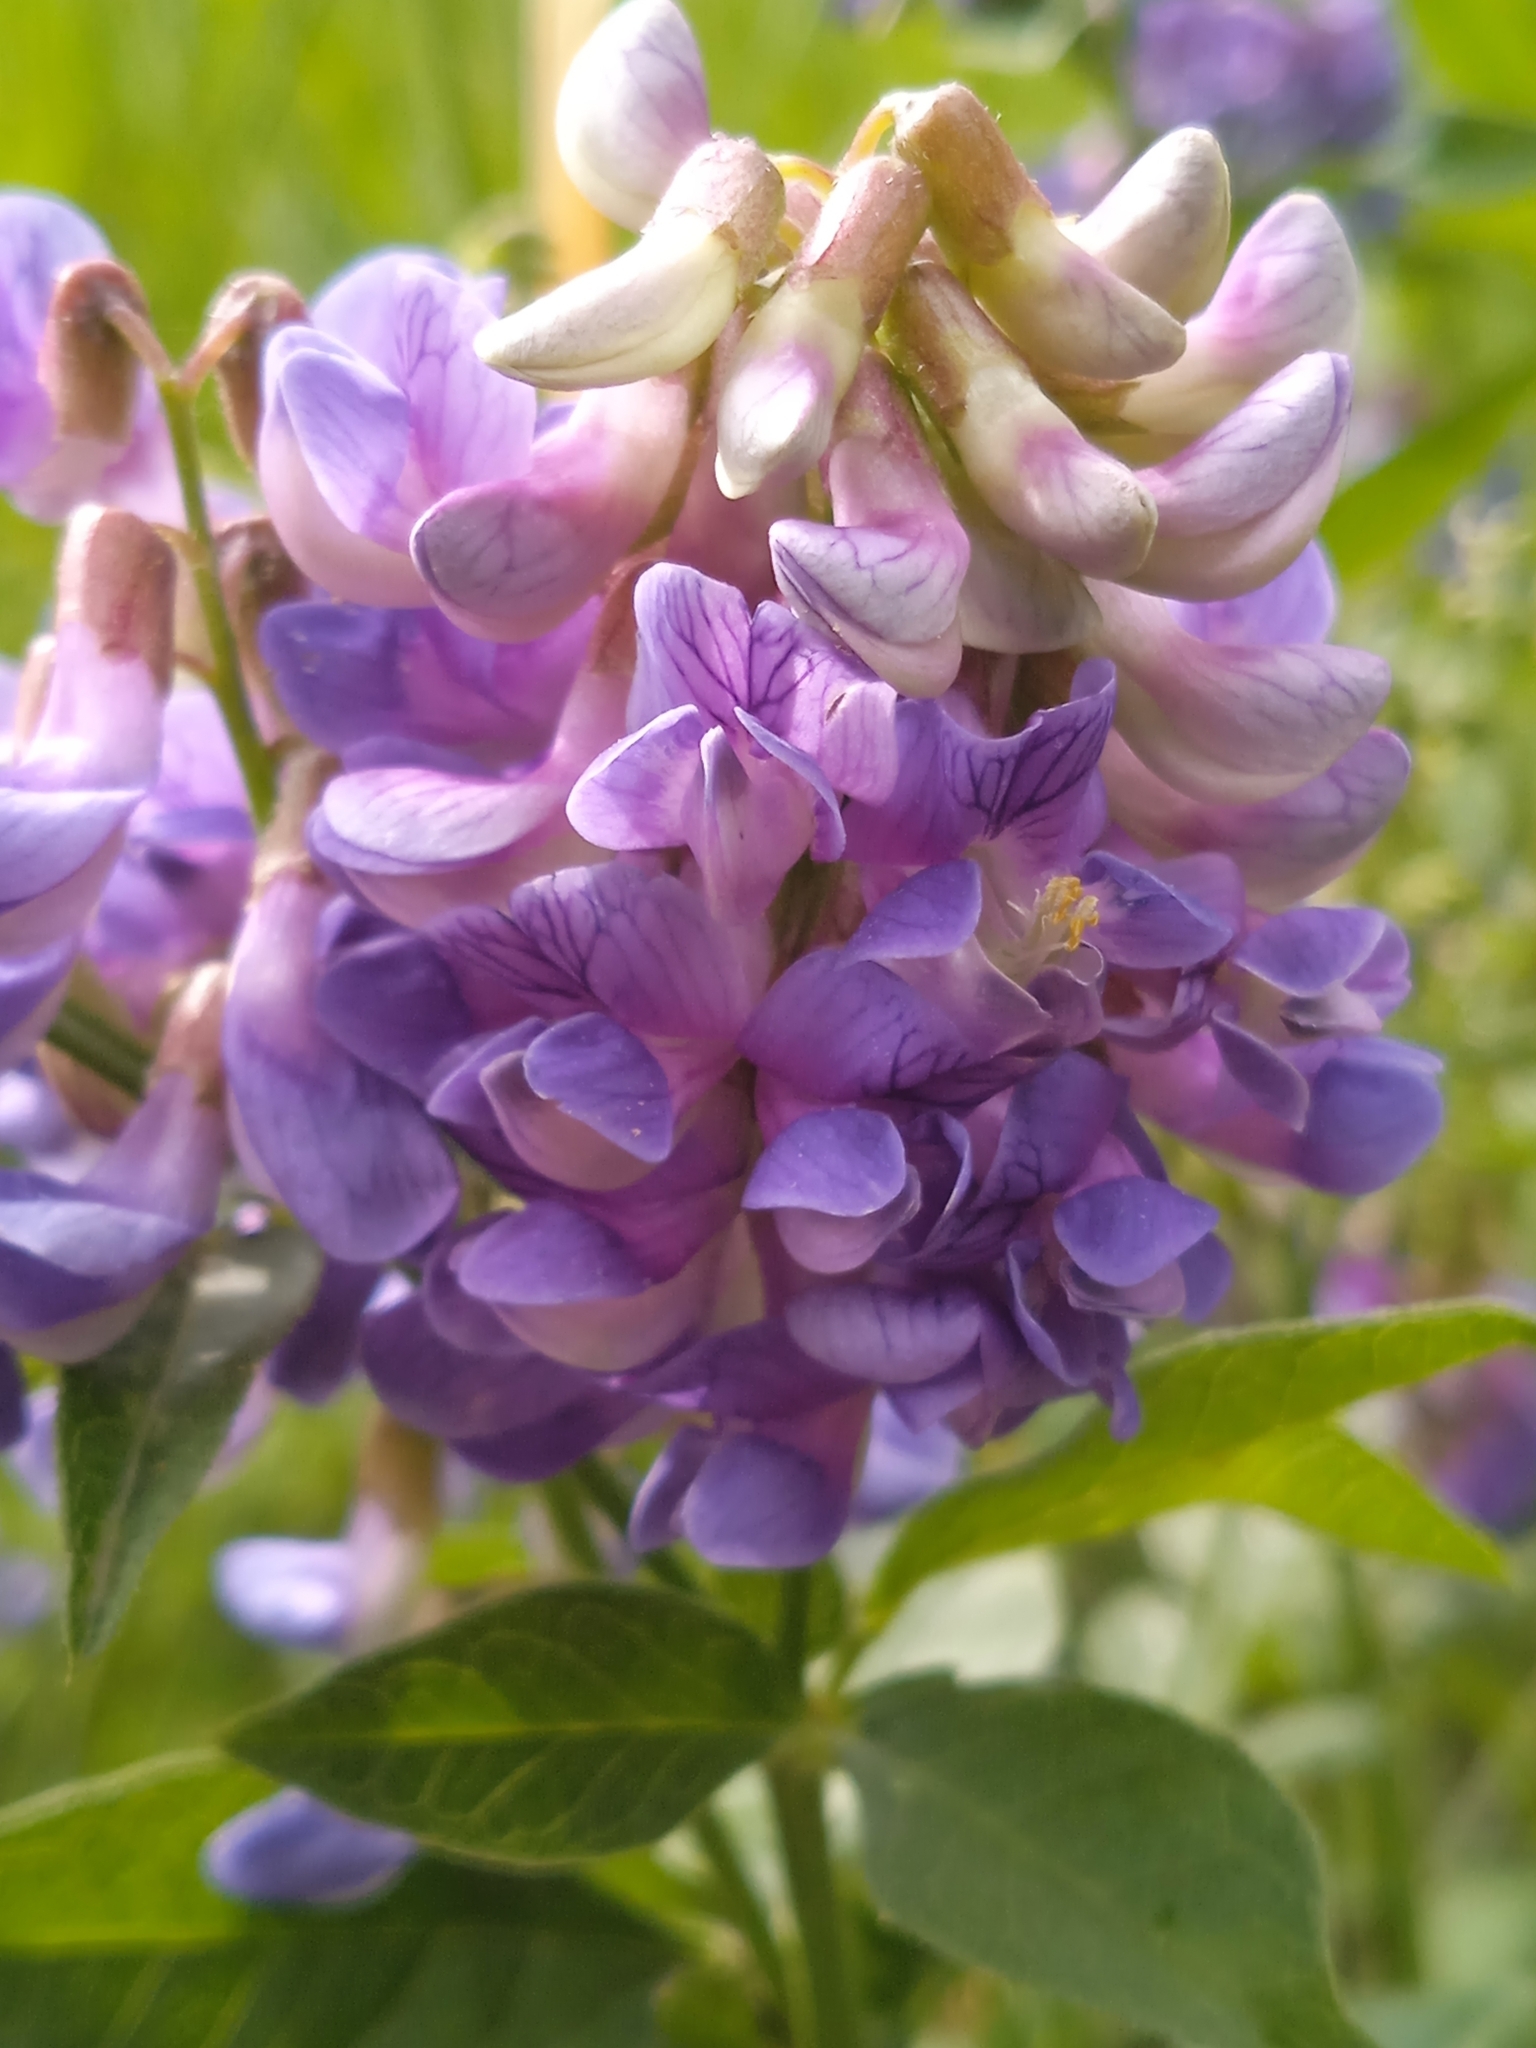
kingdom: Plantae
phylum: Tracheophyta
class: Magnoliopsida
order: Fabales
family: Fabaceae
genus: Vicia
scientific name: Vicia unijuga
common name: Two-leaf vetch
